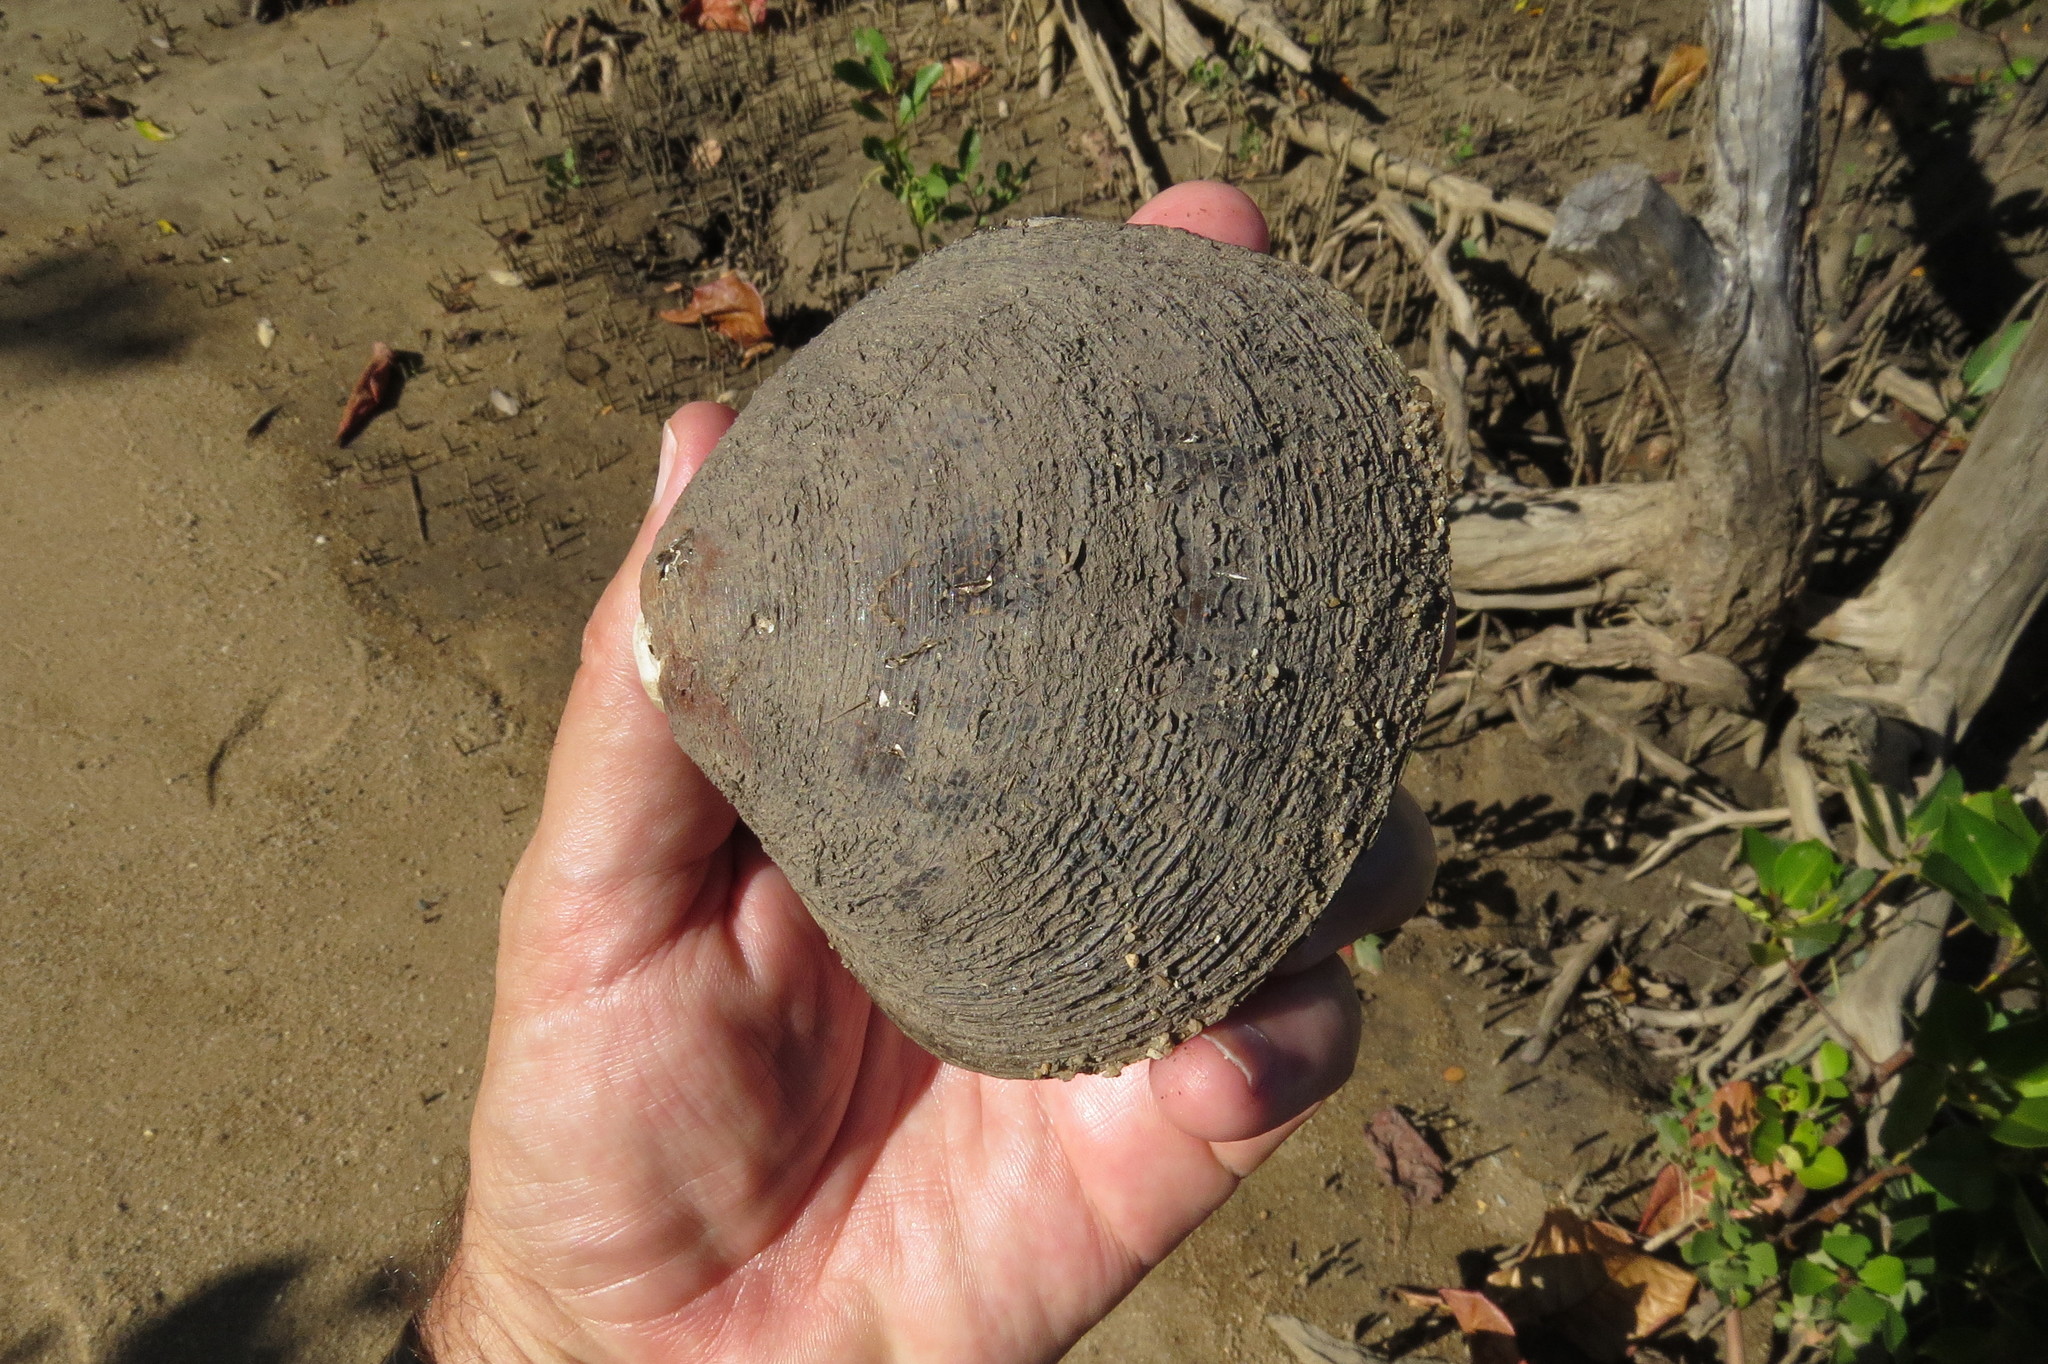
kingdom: Animalia
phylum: Mollusca
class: Bivalvia
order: Venerida
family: Cyrenidae
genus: Geloina
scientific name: Geloina coaxans
